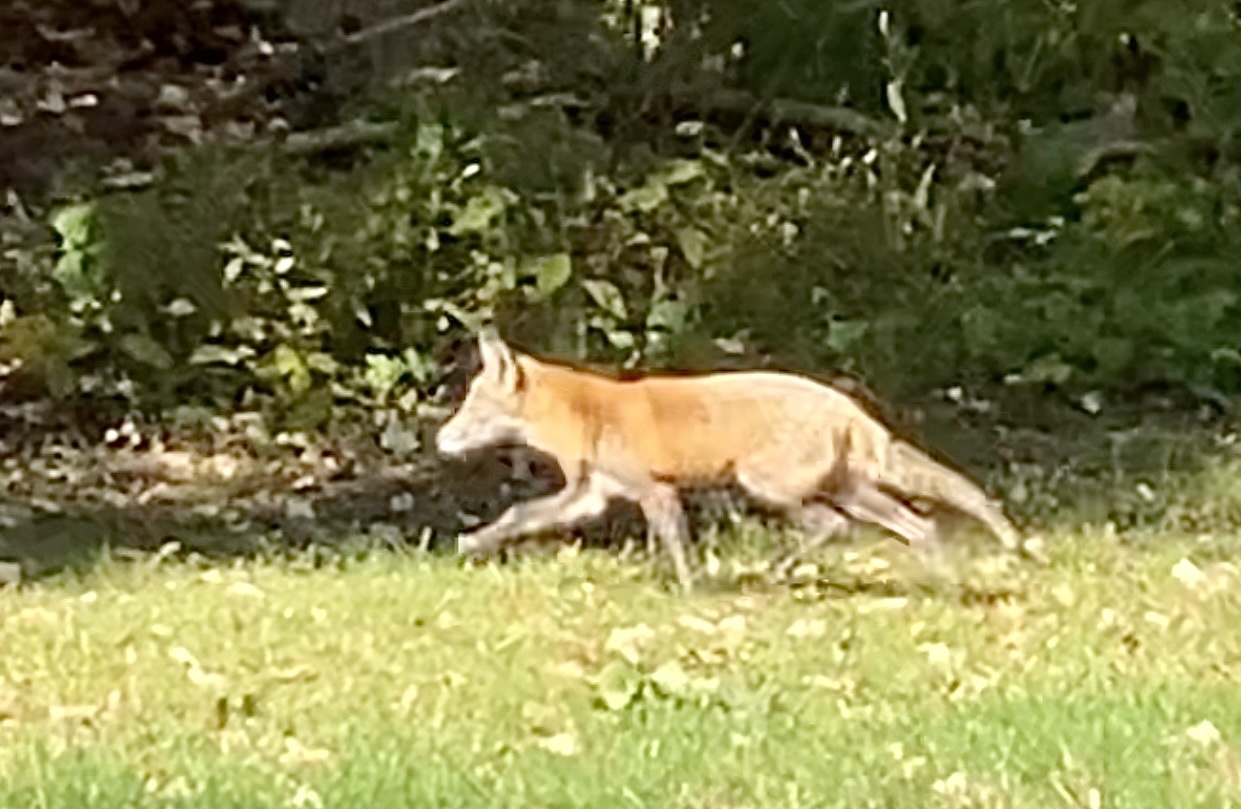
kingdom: Animalia
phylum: Chordata
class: Mammalia
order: Carnivora
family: Canidae
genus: Vulpes
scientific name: Vulpes vulpes
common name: Red fox
